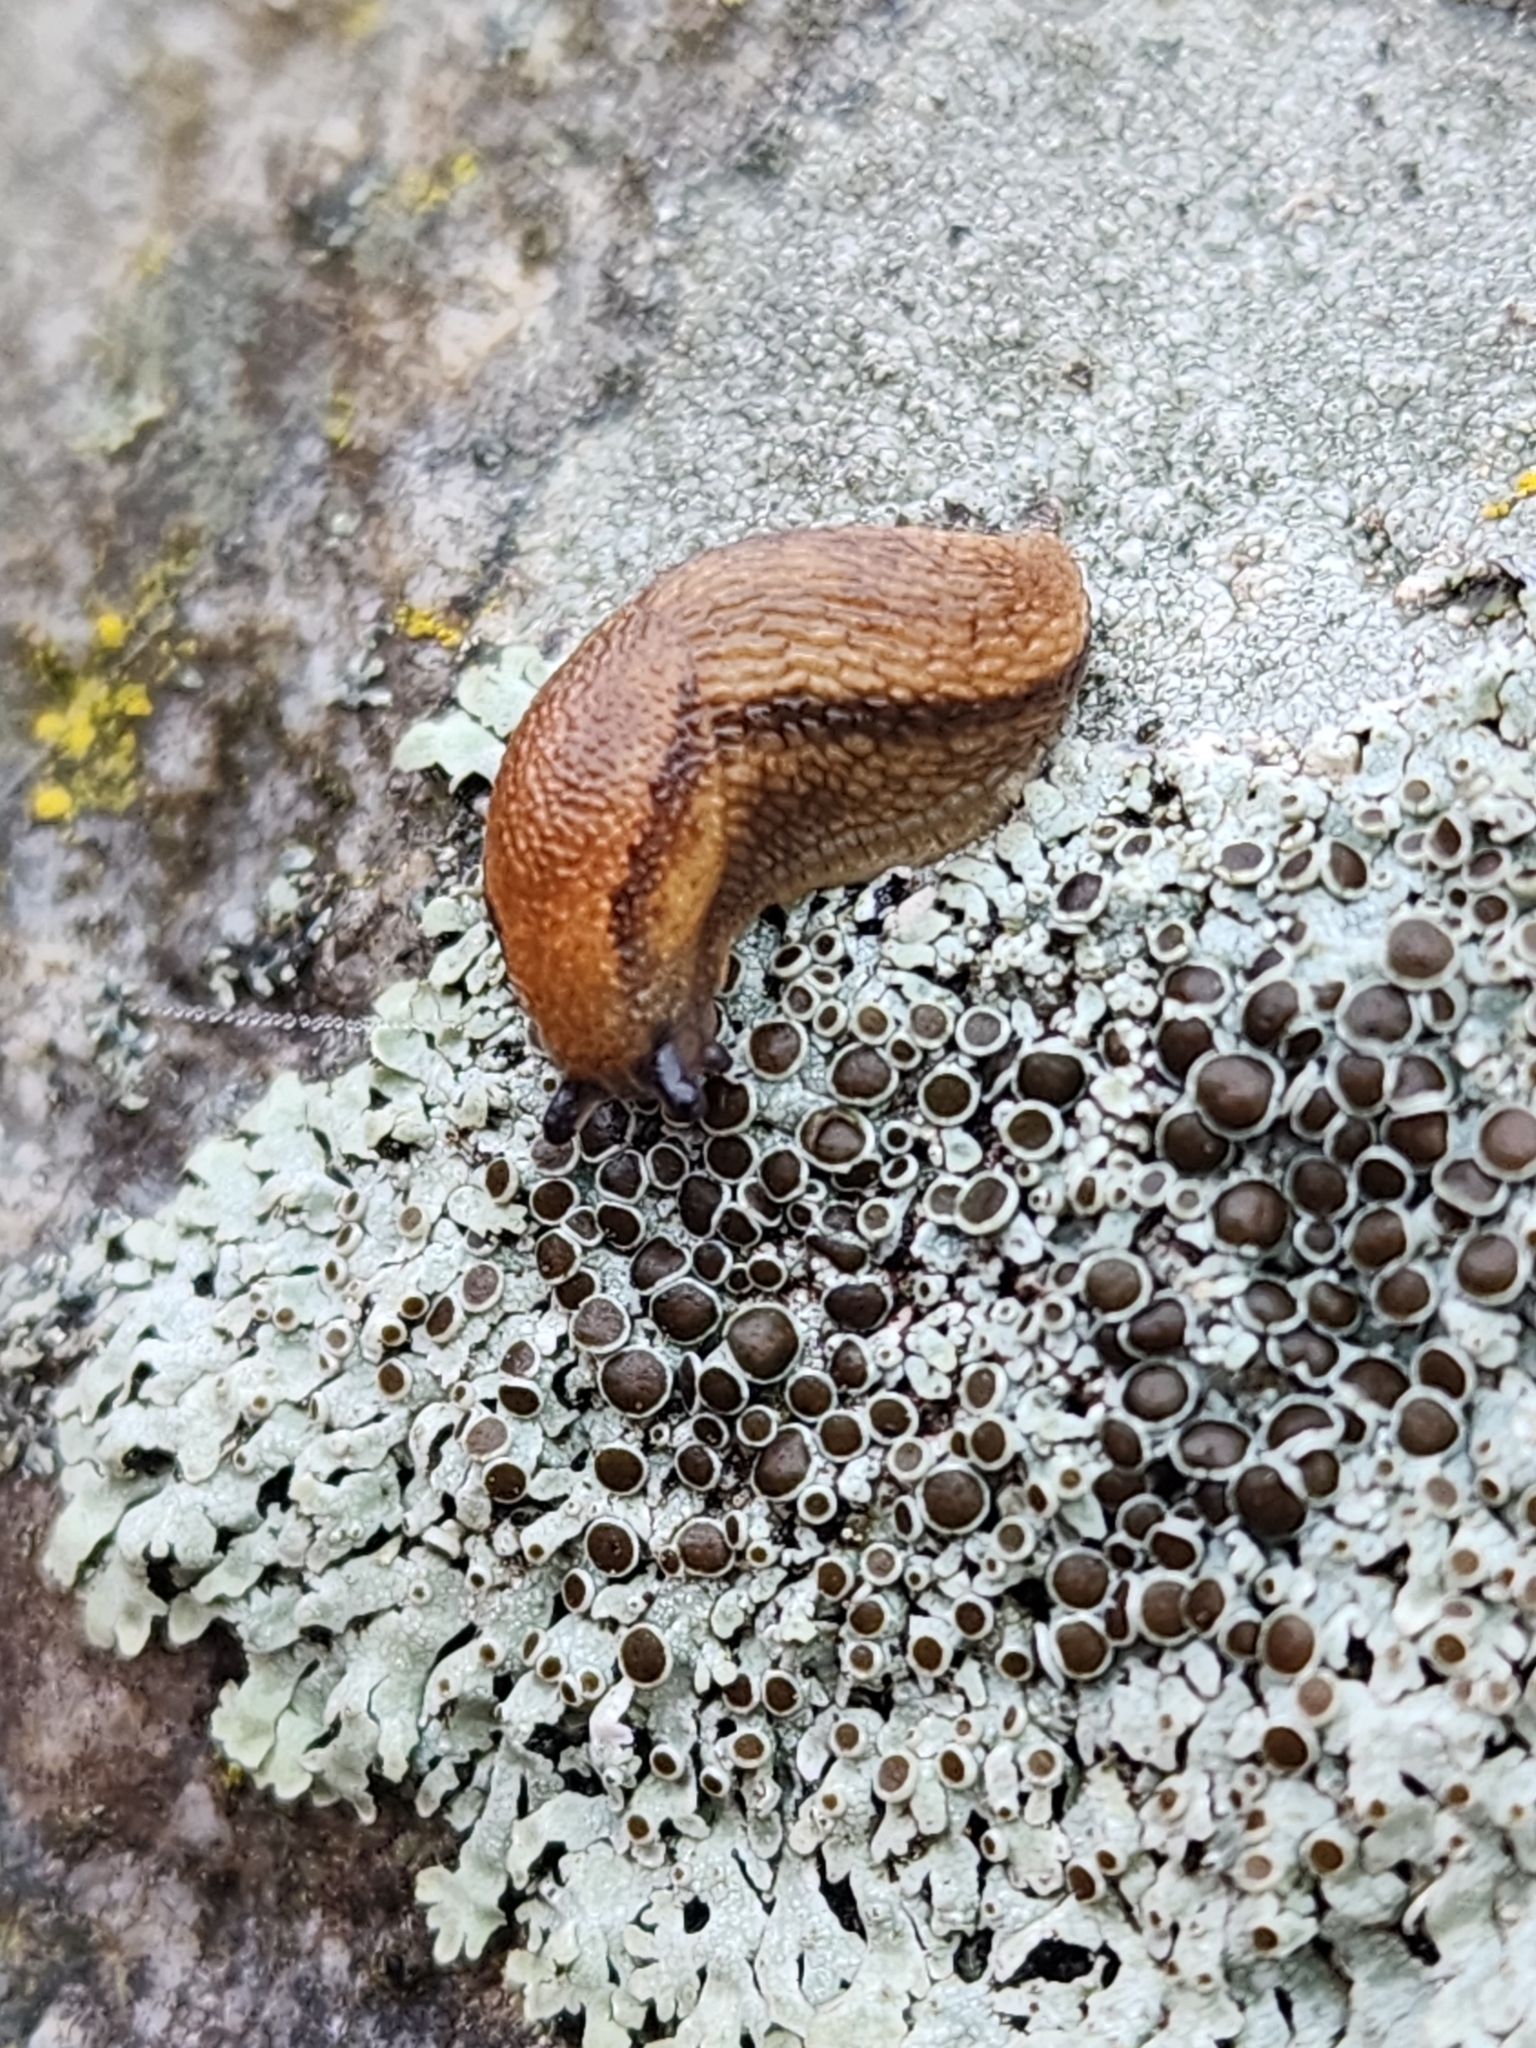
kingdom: Animalia
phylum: Mollusca
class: Gastropoda
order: Stylommatophora
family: Arionidae
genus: Arion
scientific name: Arion subfuscus
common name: Dusky arion
